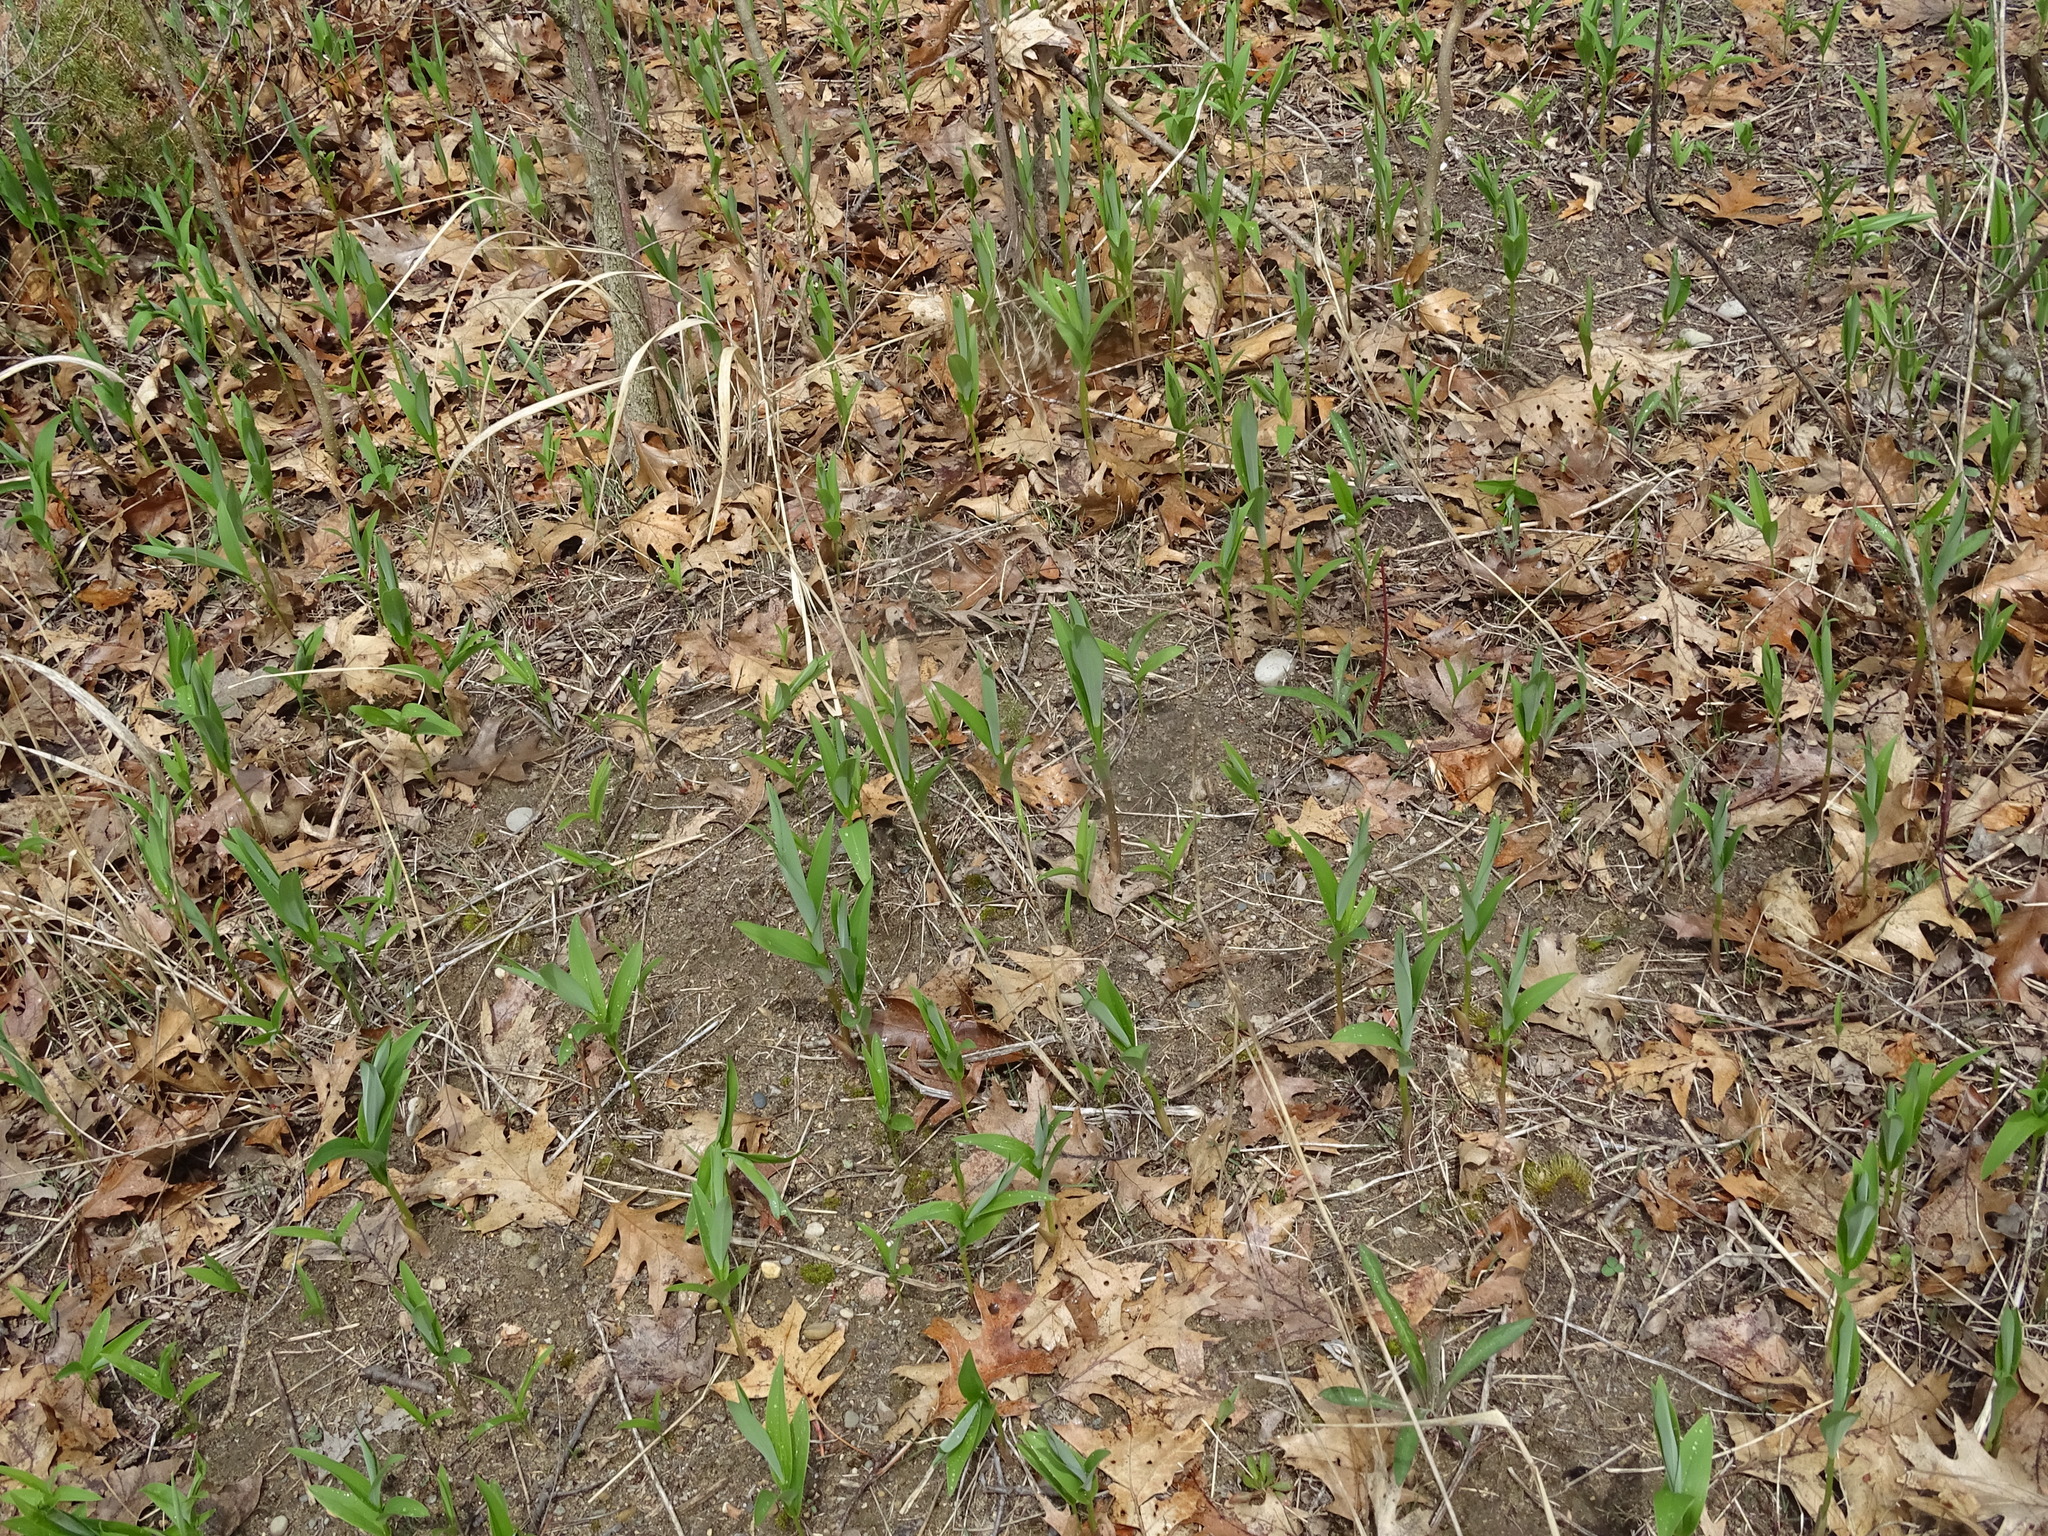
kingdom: Plantae
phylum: Tracheophyta
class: Liliopsida
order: Asparagales
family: Asparagaceae
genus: Maianthemum
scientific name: Maianthemum stellatum
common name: Little false solomon's seal
